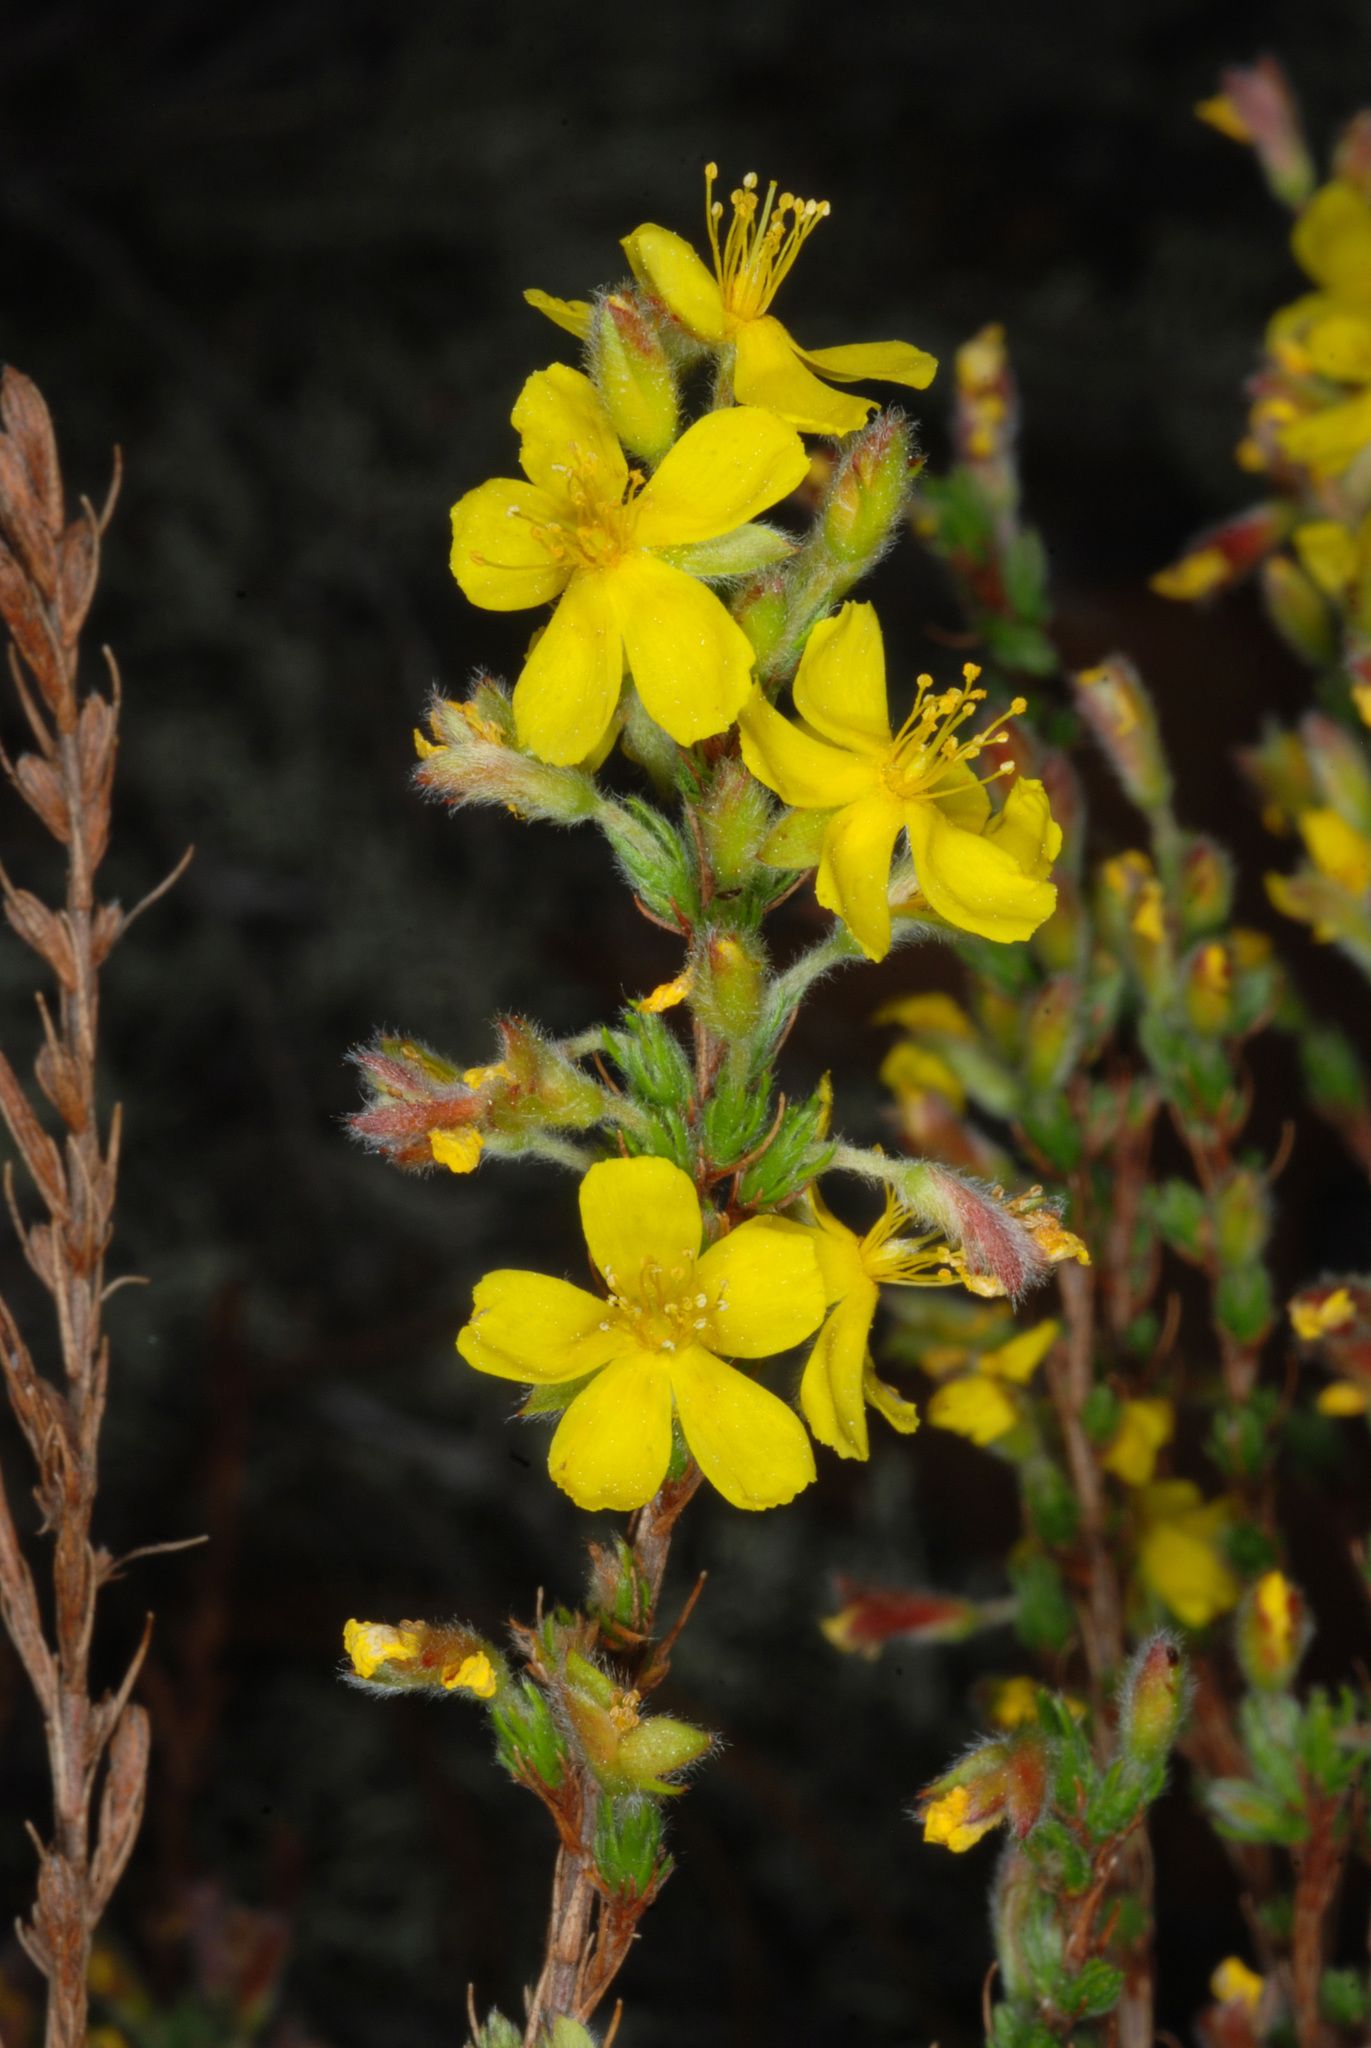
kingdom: Plantae
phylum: Tracheophyta
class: Magnoliopsida
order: Malvales
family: Cistaceae
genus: Hudsonia
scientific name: Hudsonia ericoides
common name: Golden-heather
